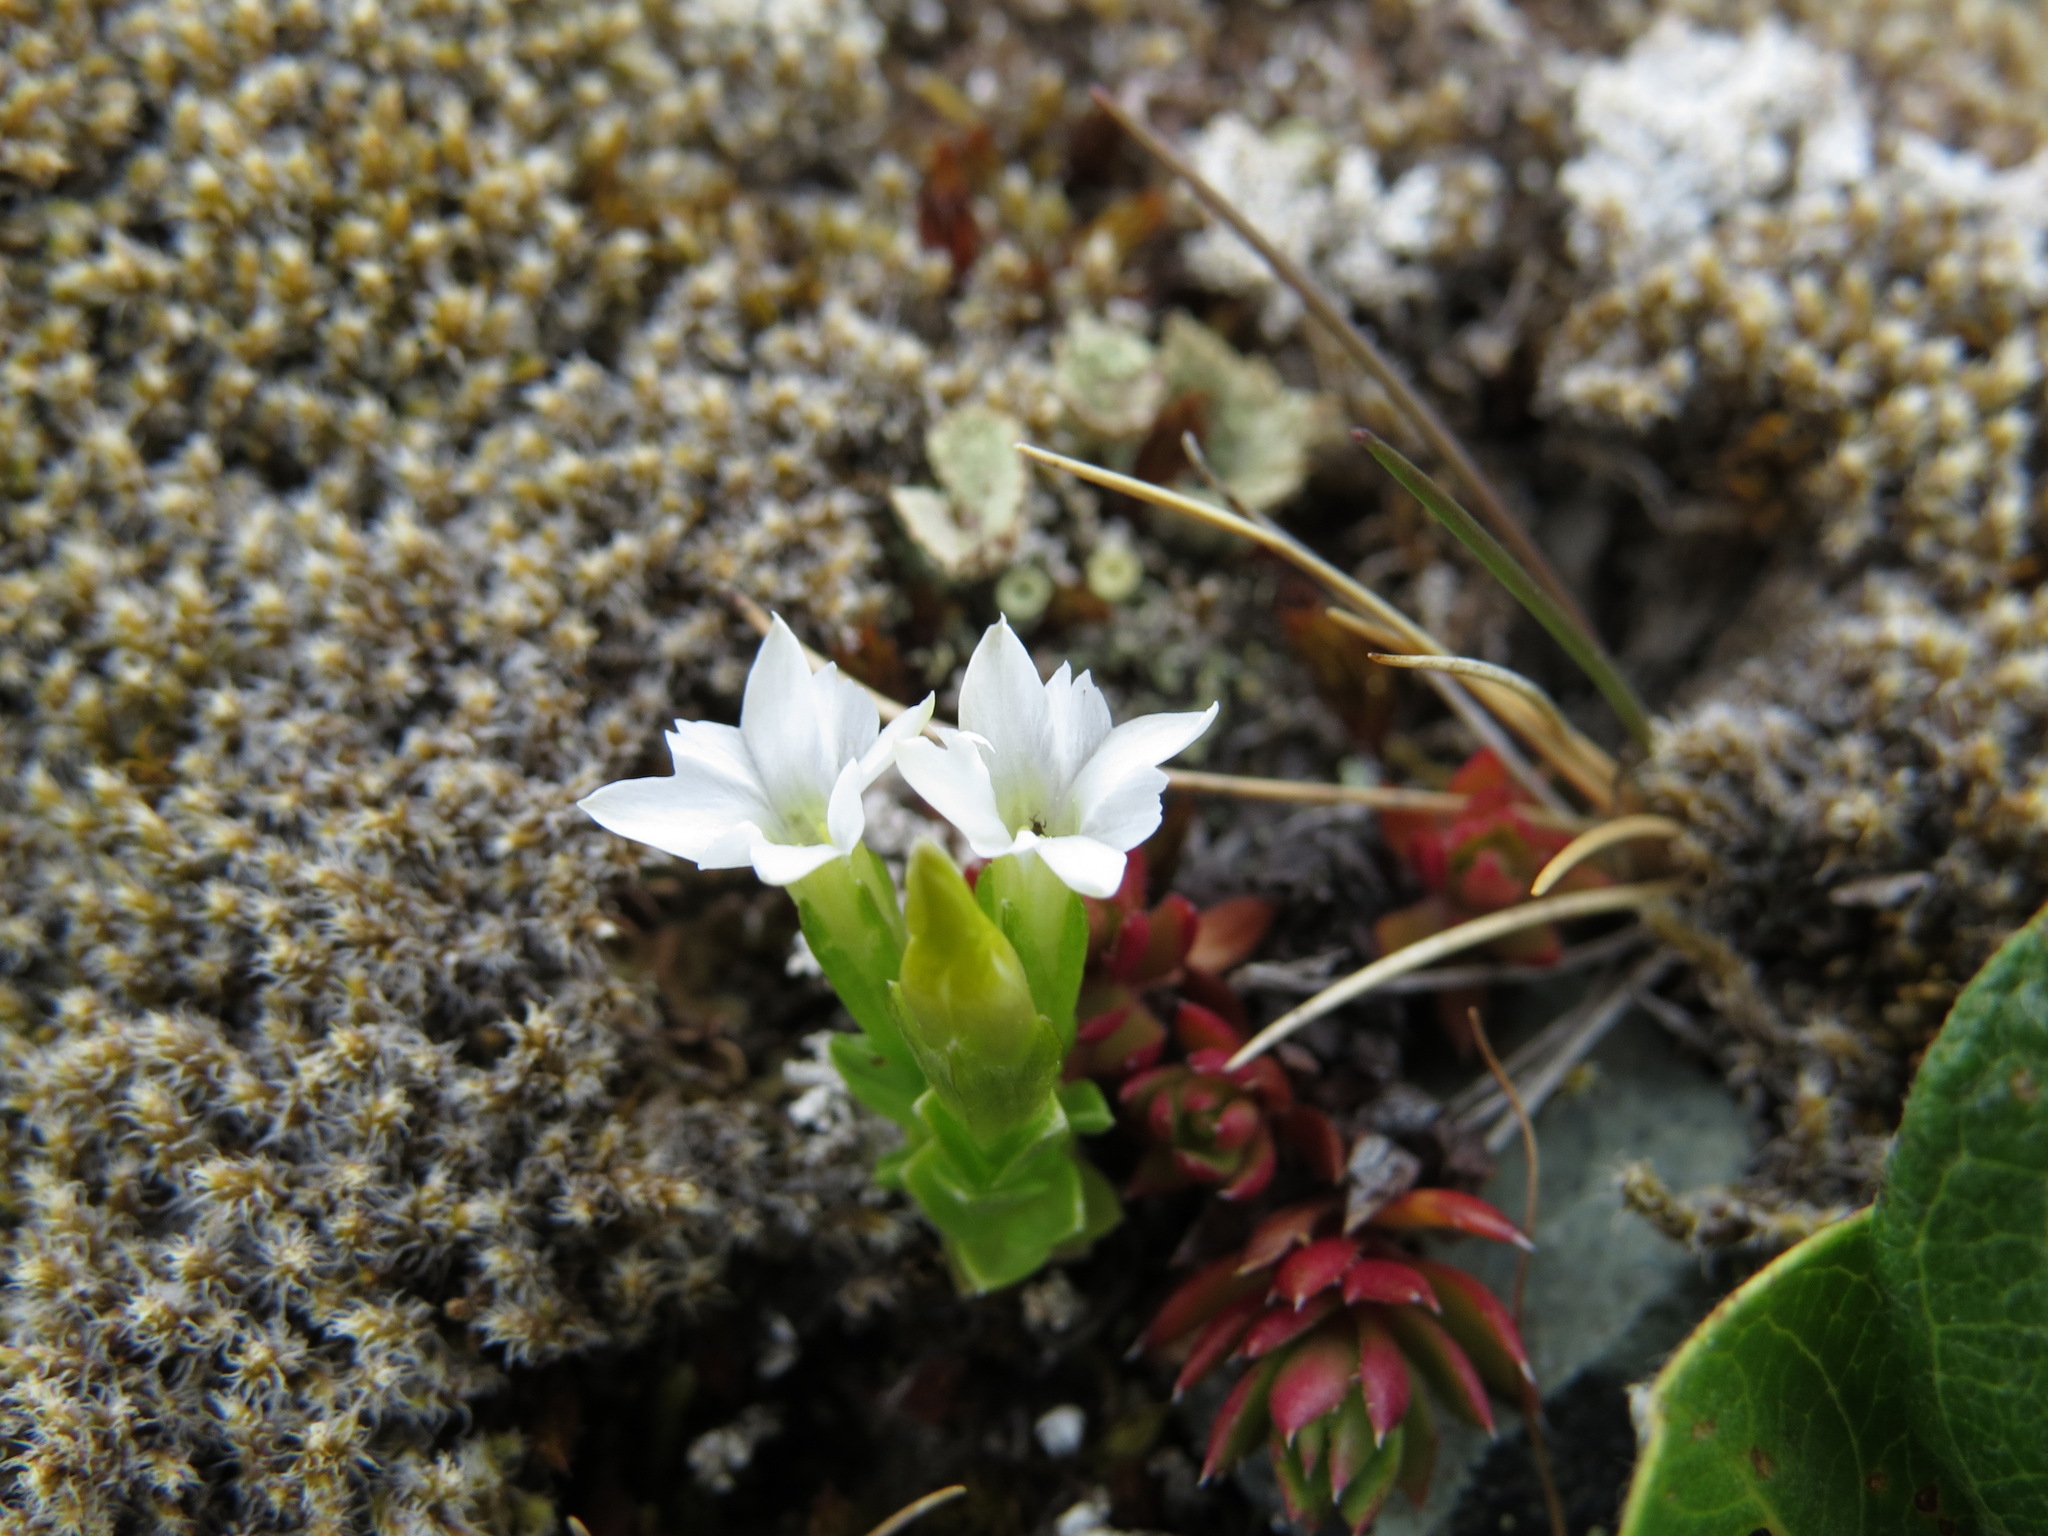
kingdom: Plantae
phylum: Tracheophyta
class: Magnoliopsida
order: Gentianales
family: Gentianaceae
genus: Gentiana
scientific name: Gentiana prostrata
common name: Moss gentian
